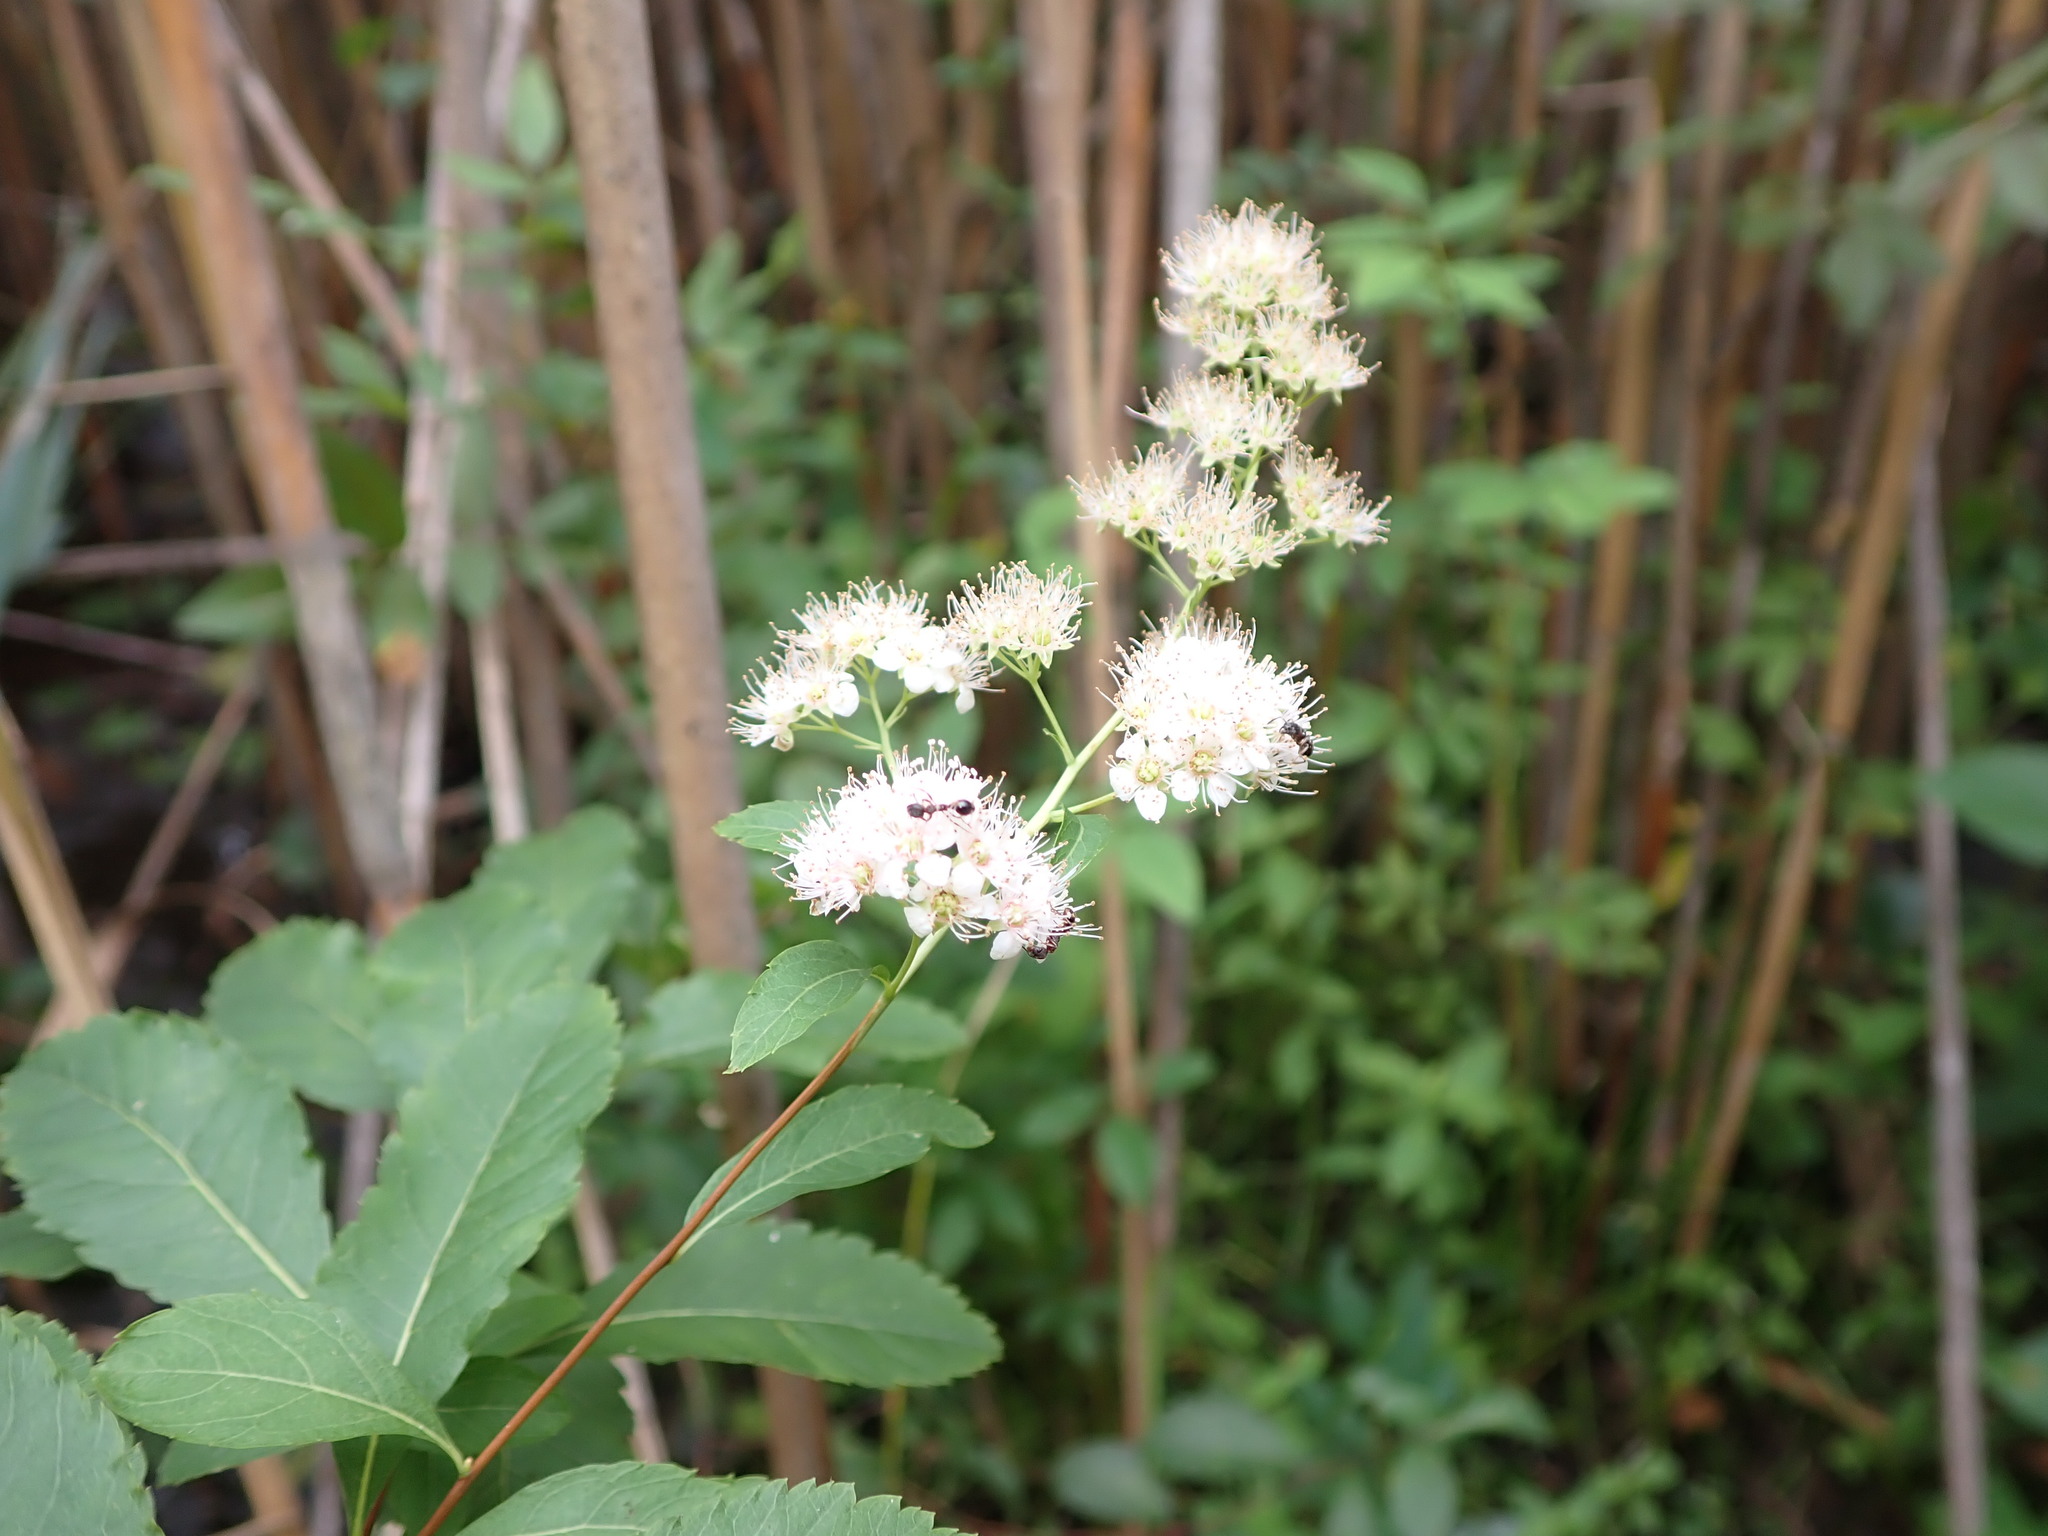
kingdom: Plantae
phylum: Tracheophyta
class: Magnoliopsida
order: Rosales
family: Rosaceae
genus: Spiraea
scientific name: Spiraea alba
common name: Pale bridewort
